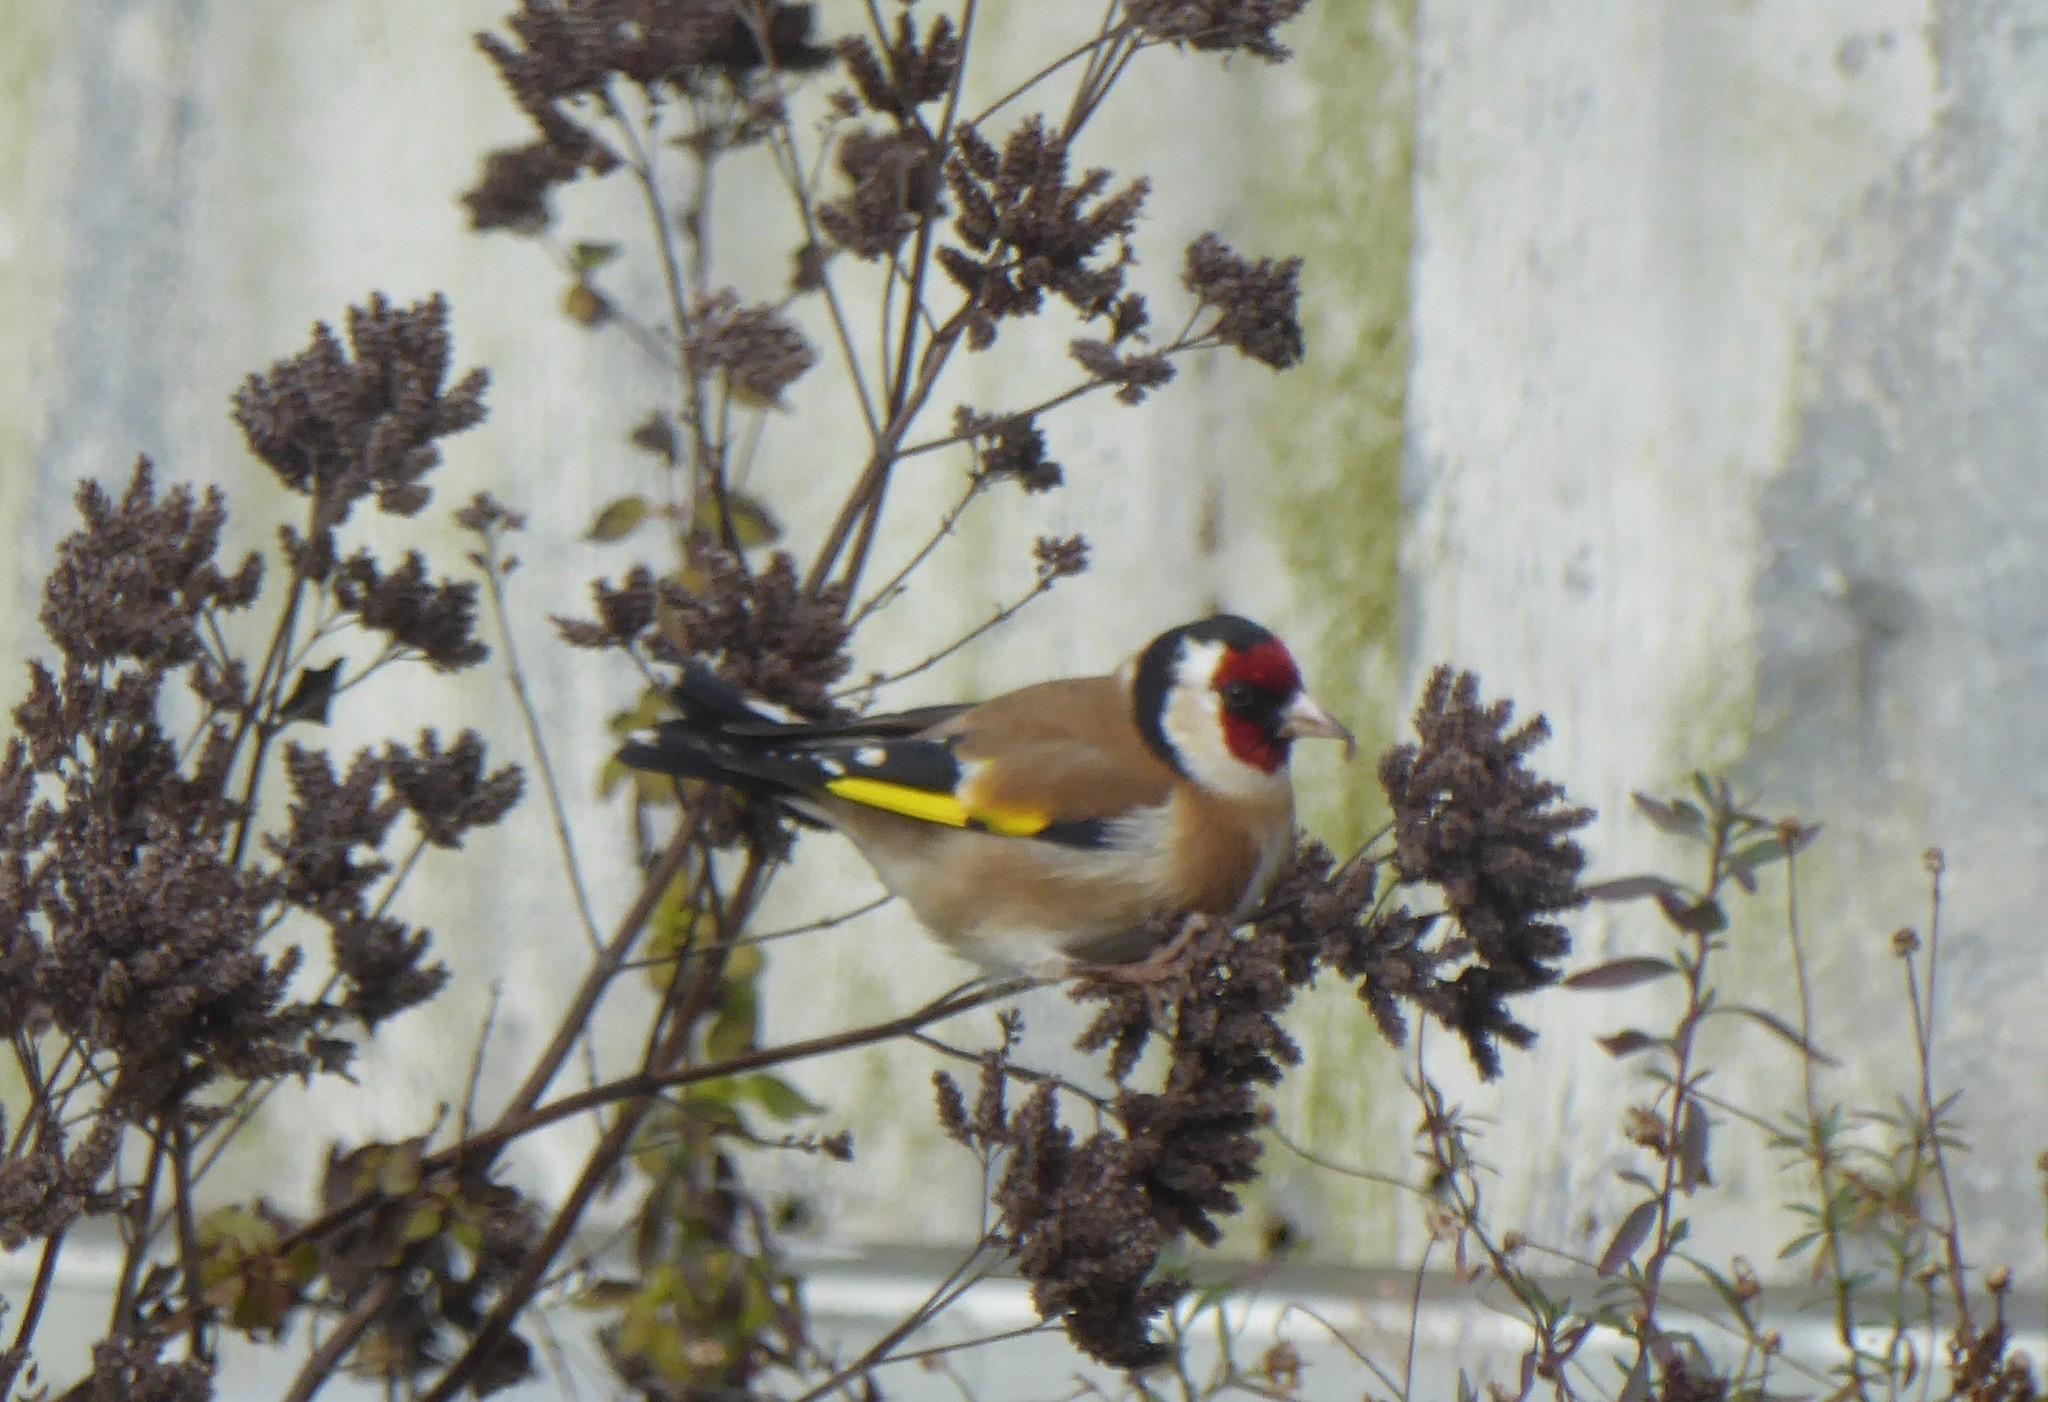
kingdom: Animalia
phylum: Chordata
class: Aves
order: Passeriformes
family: Fringillidae
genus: Carduelis
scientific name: Carduelis carduelis
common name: European goldfinch
